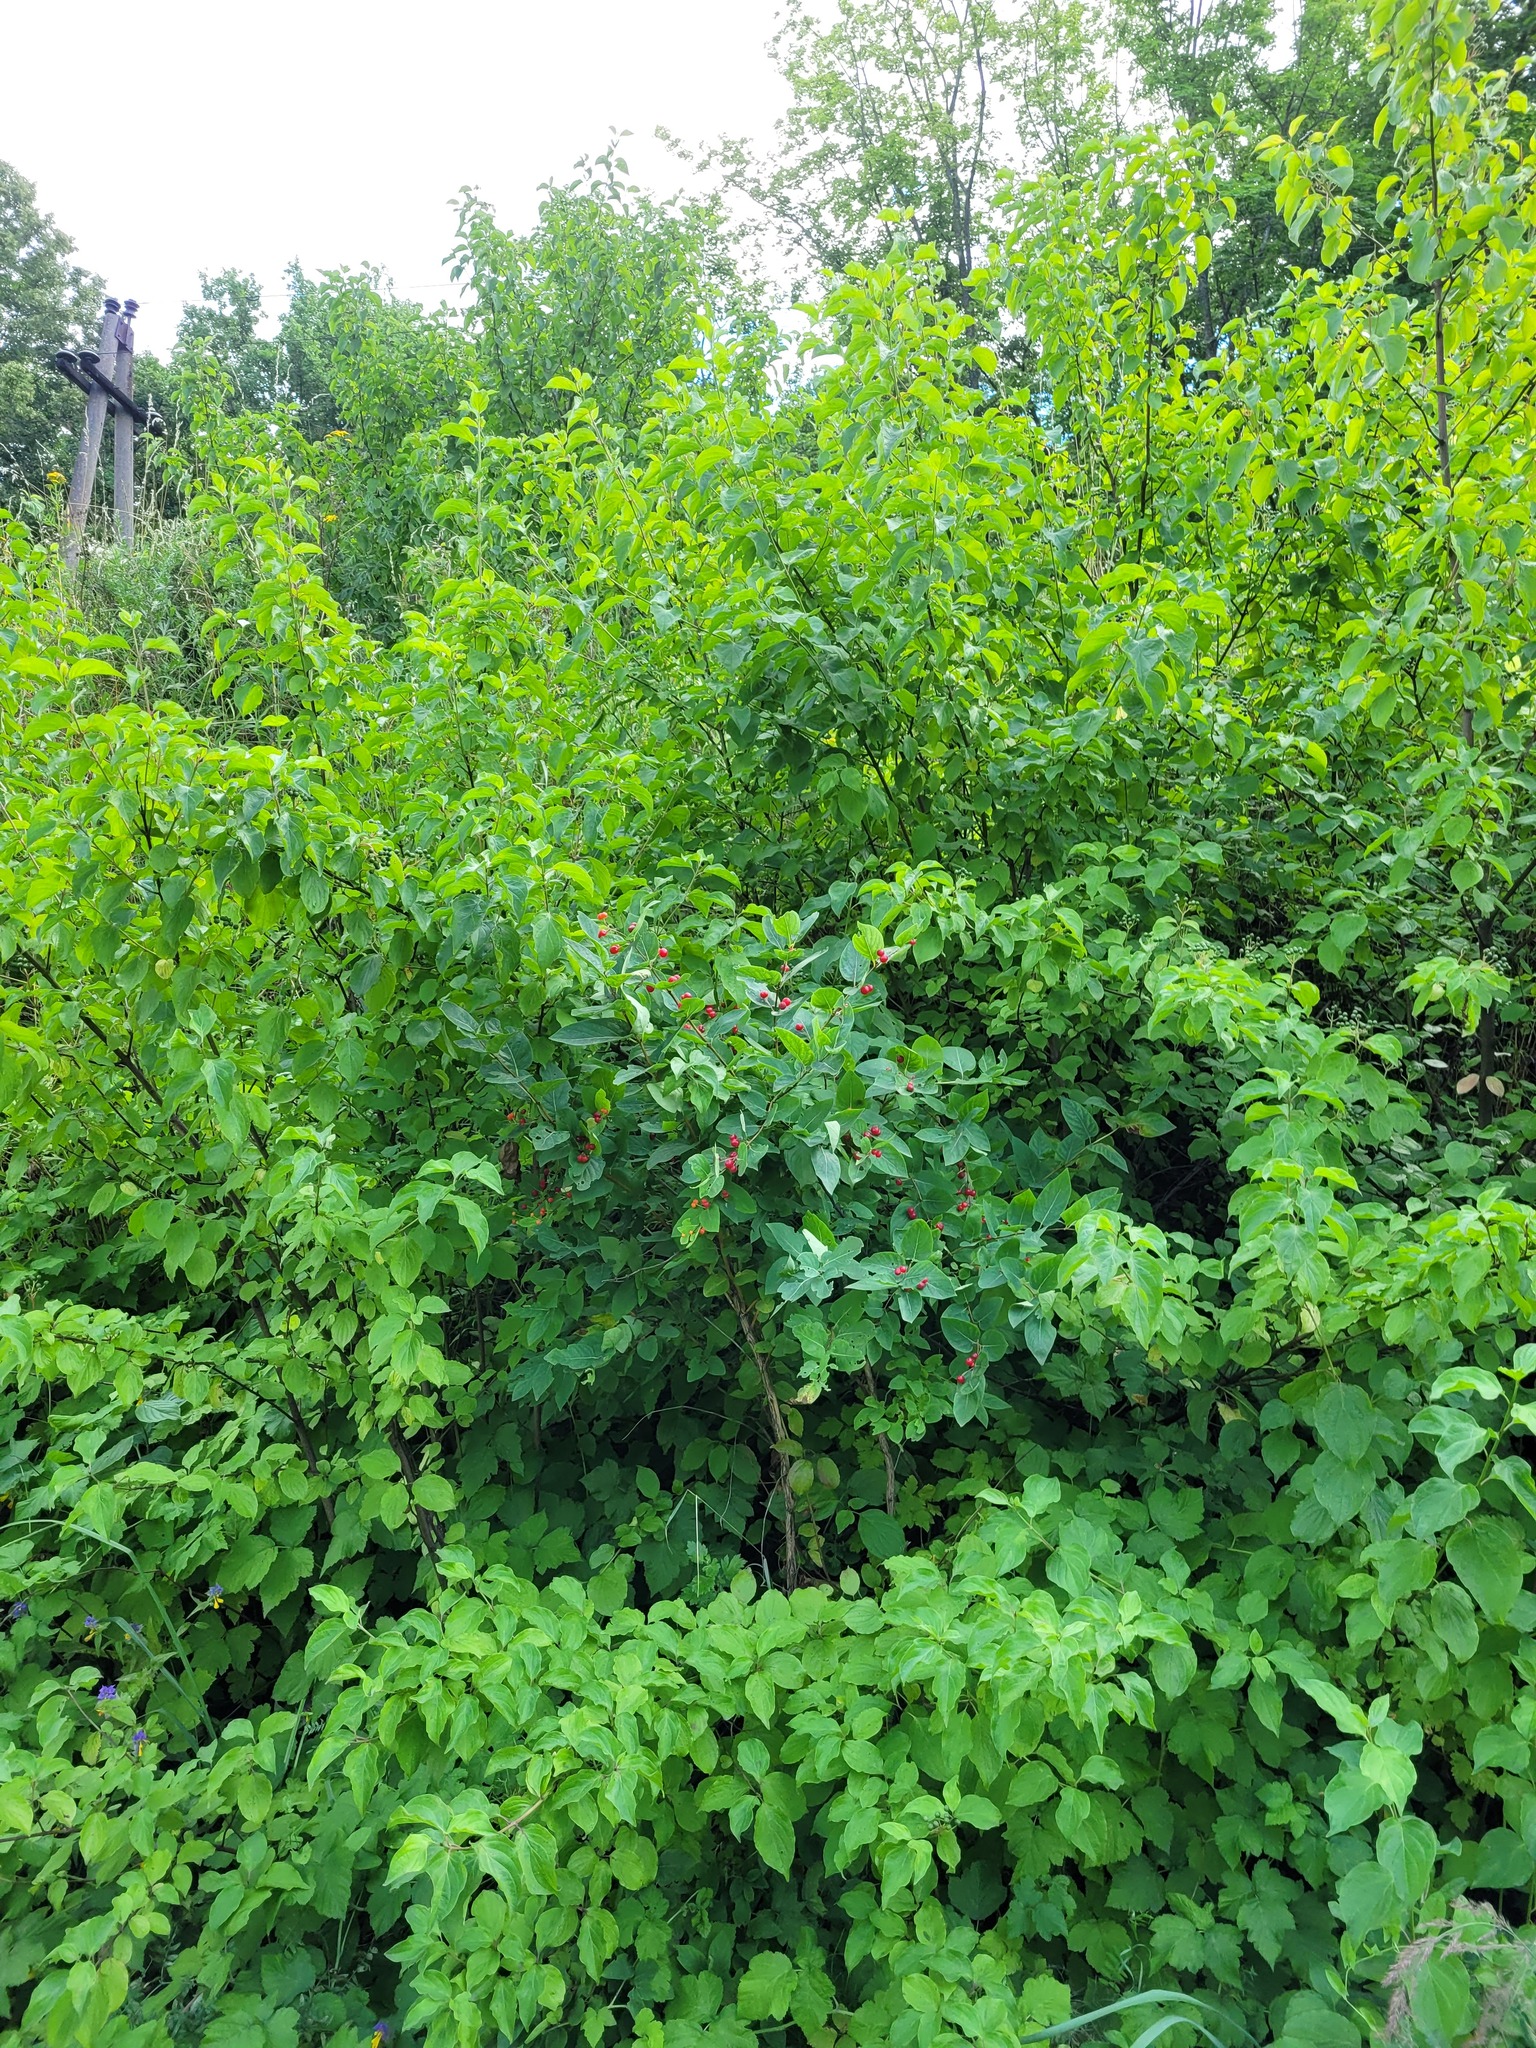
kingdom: Plantae
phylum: Tracheophyta
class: Magnoliopsida
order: Dipsacales
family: Caprifoliaceae
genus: Lonicera
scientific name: Lonicera tatarica
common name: Tatarian honeysuckle
